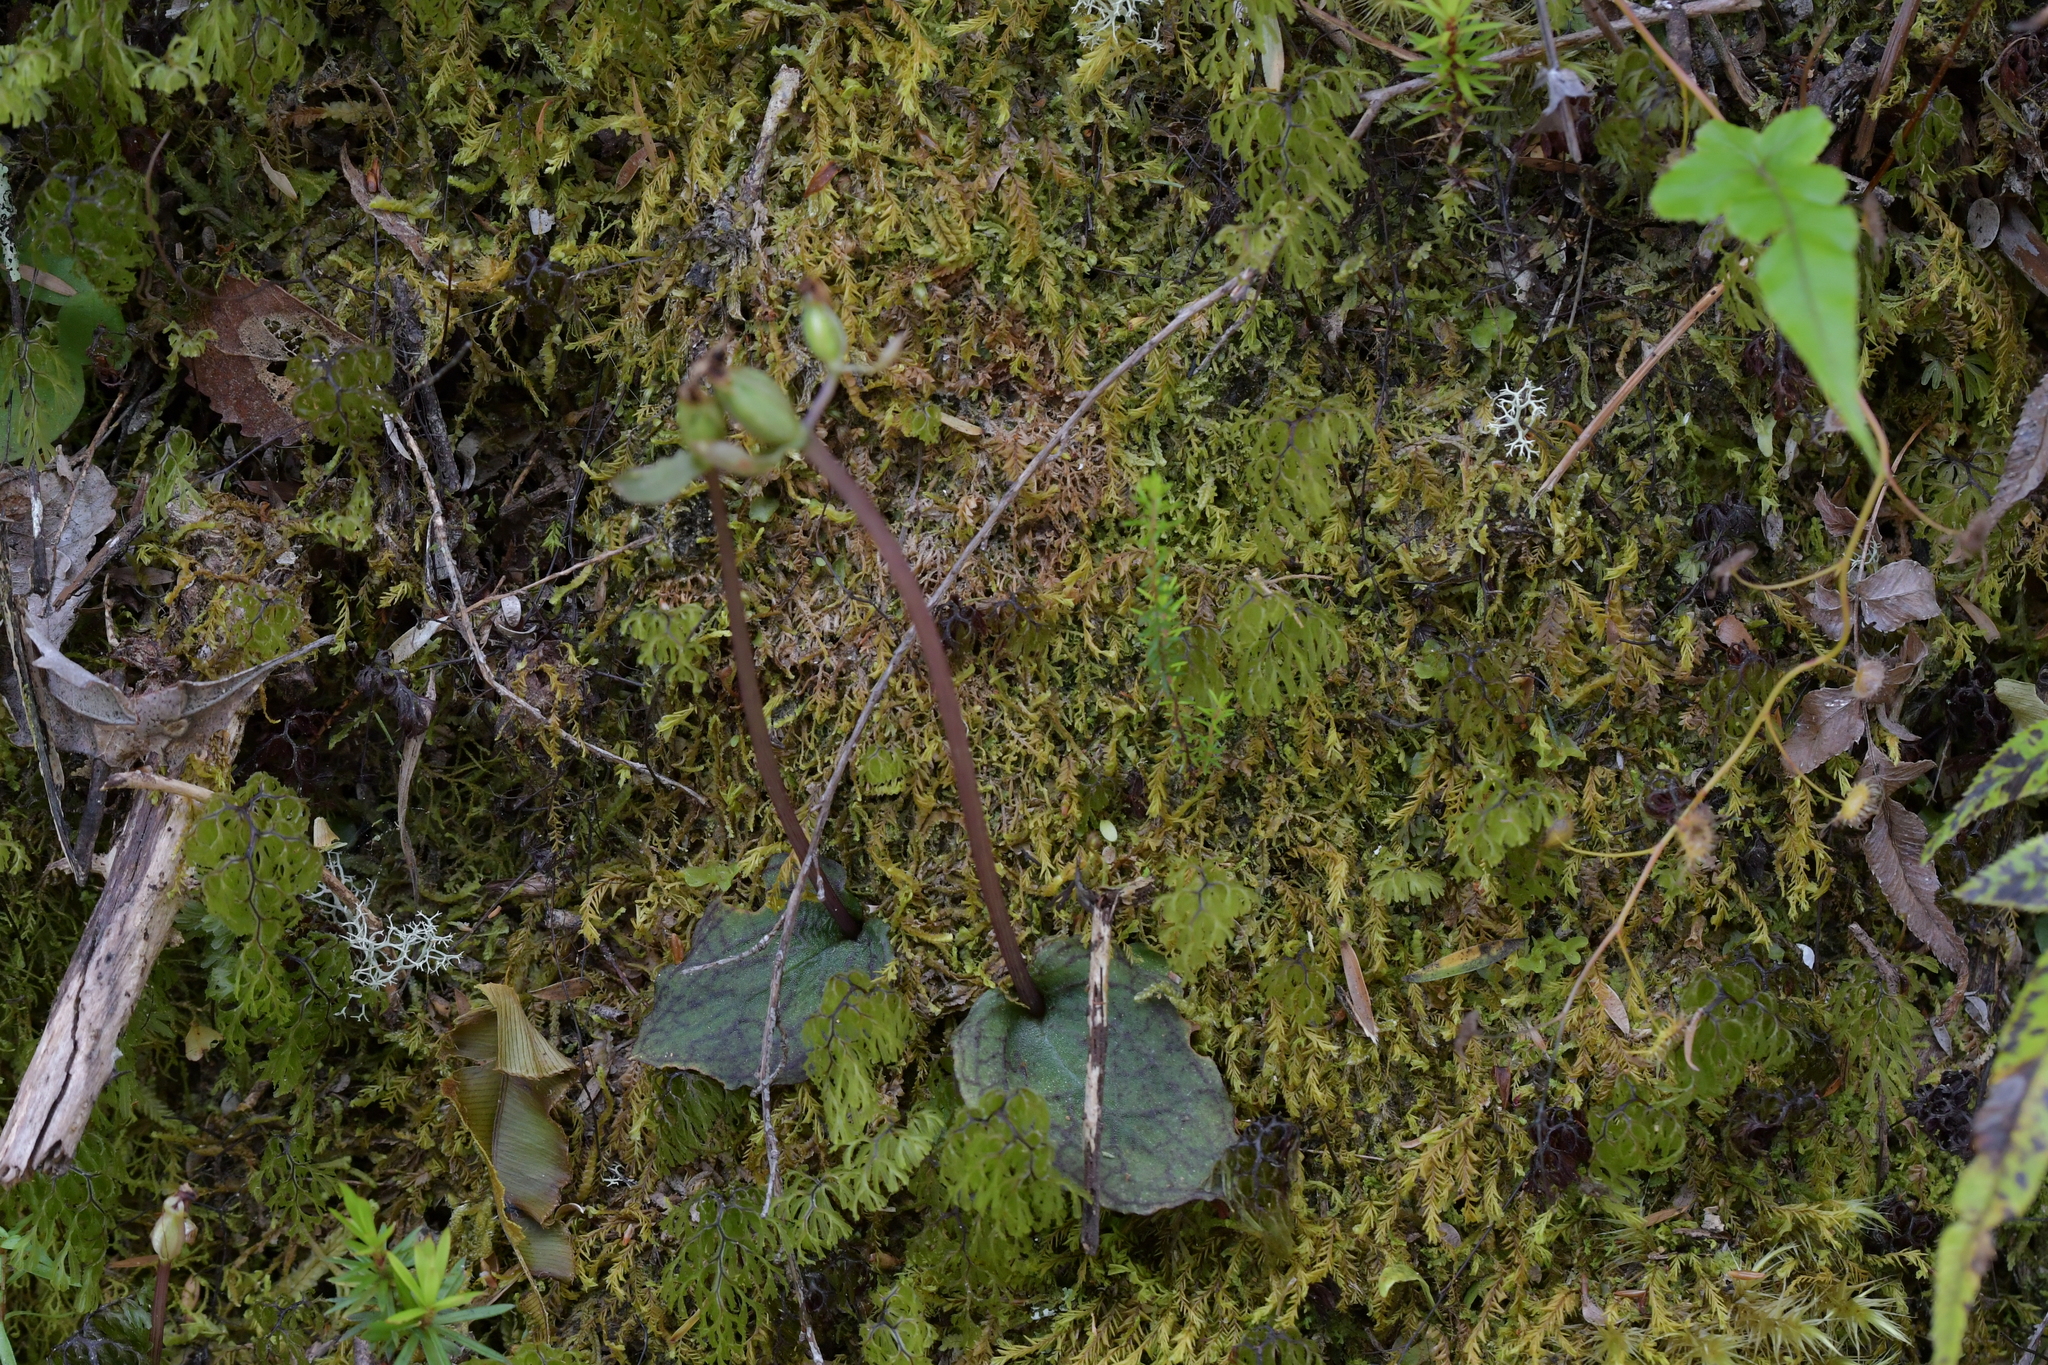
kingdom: Plantae
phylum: Tracheophyta
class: Liliopsida
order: Asparagales
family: Orchidaceae
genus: Corybas
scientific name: Corybas oblongus
